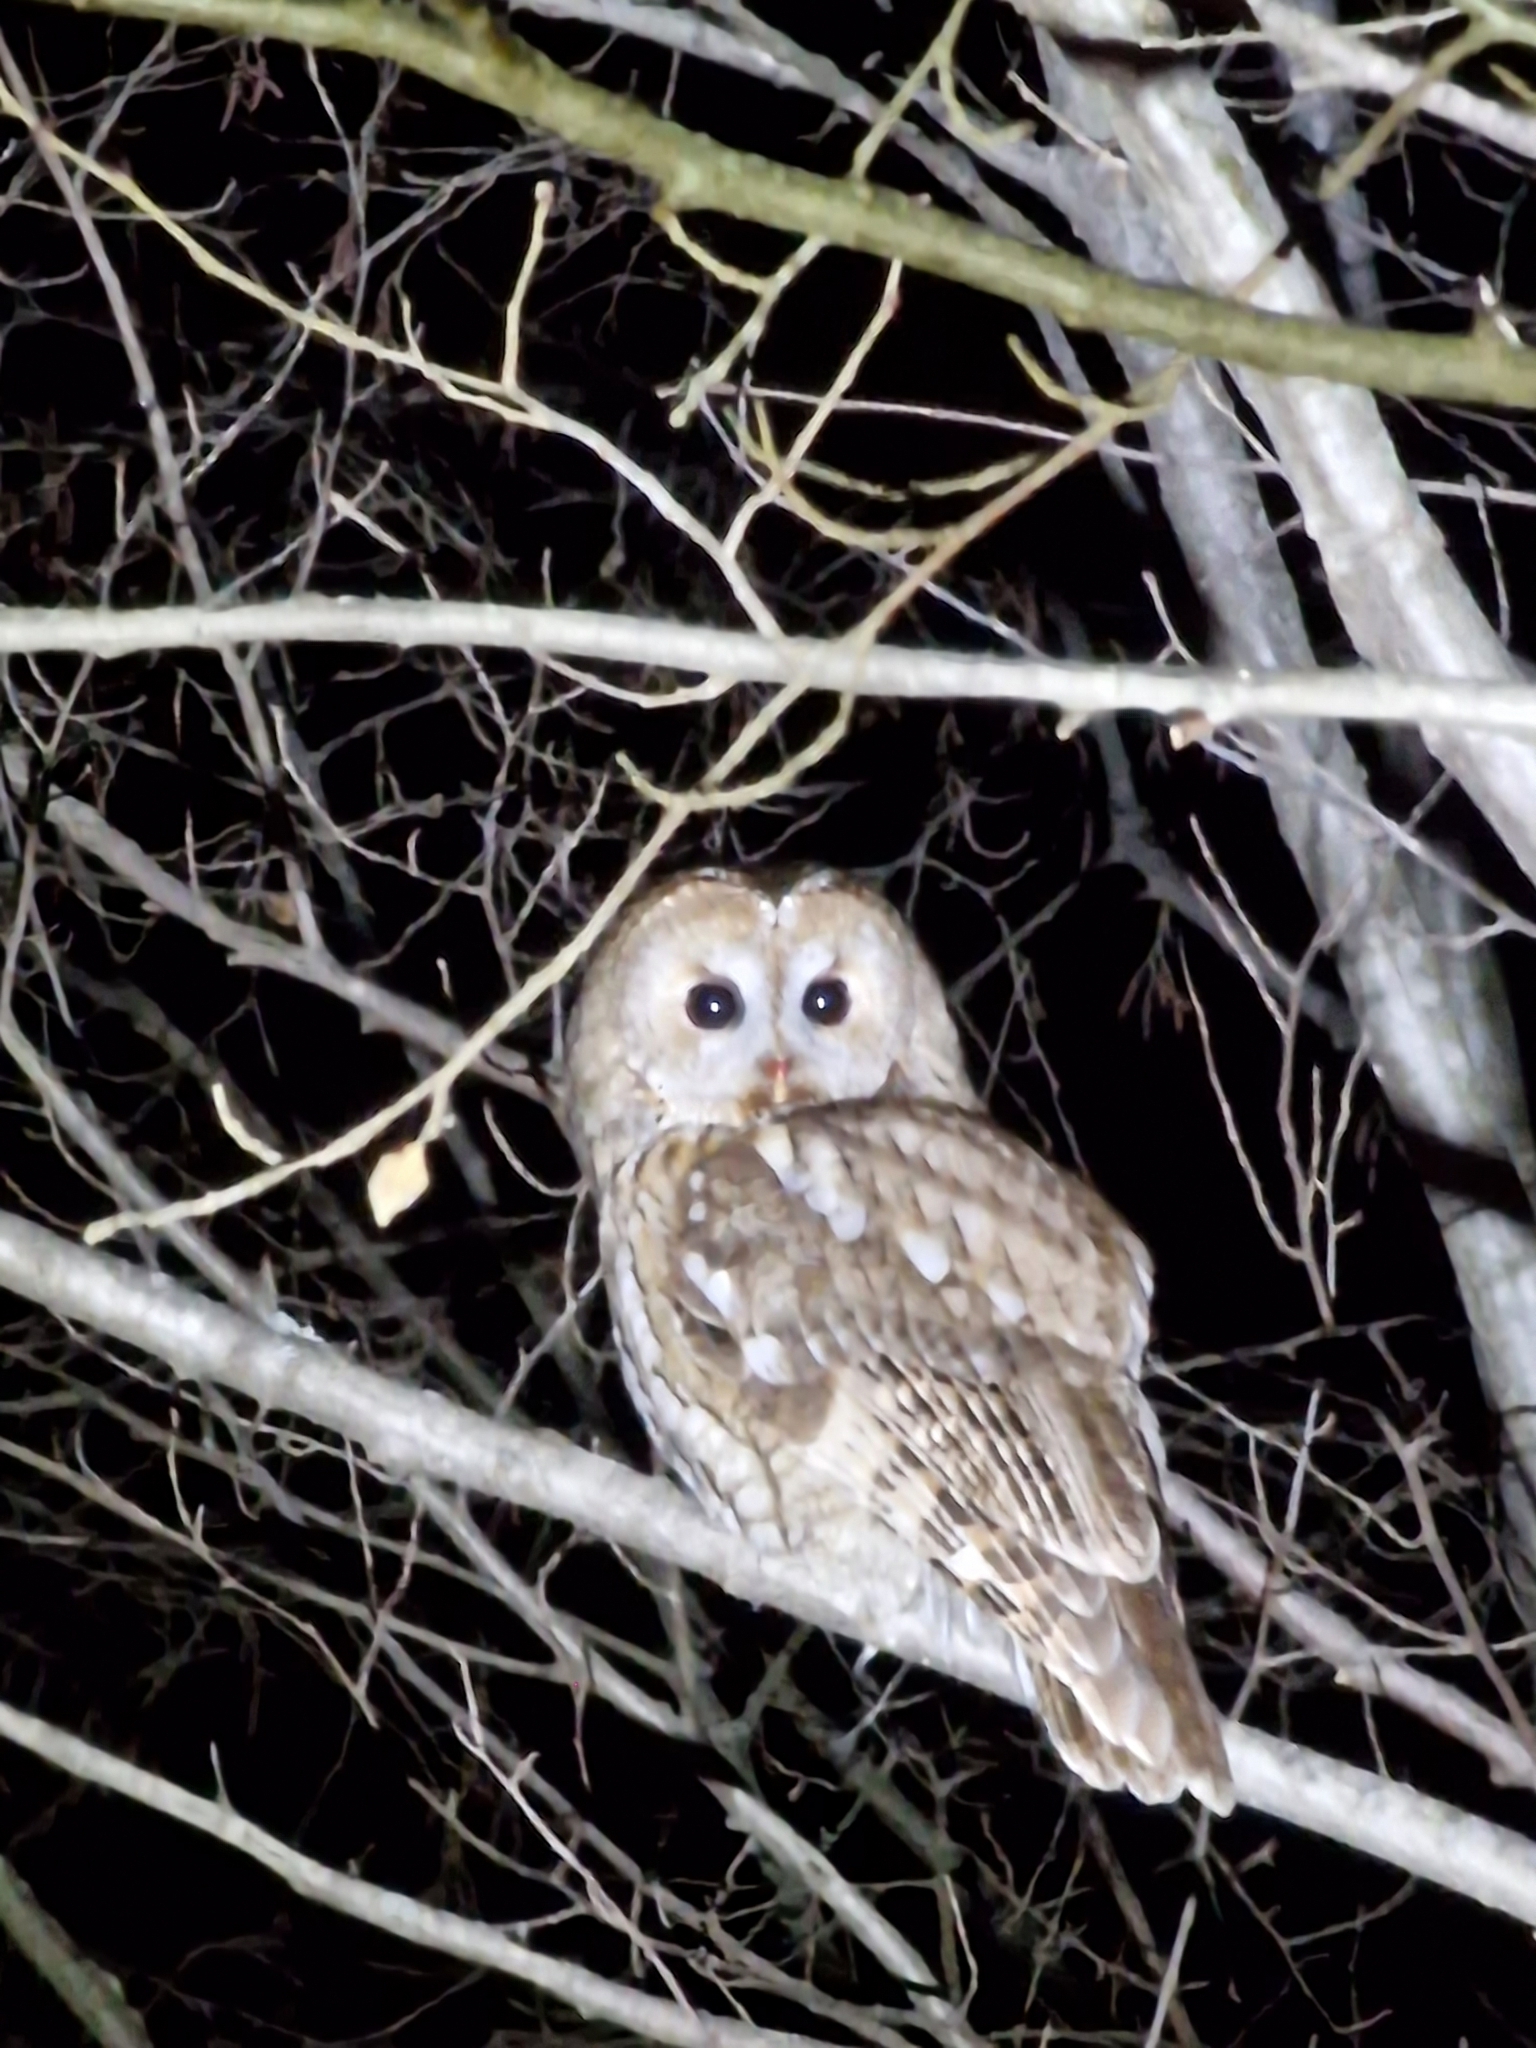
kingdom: Animalia
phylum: Chordata
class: Aves
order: Strigiformes
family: Strigidae
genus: Strix
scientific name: Strix aluco
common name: Tawny owl
